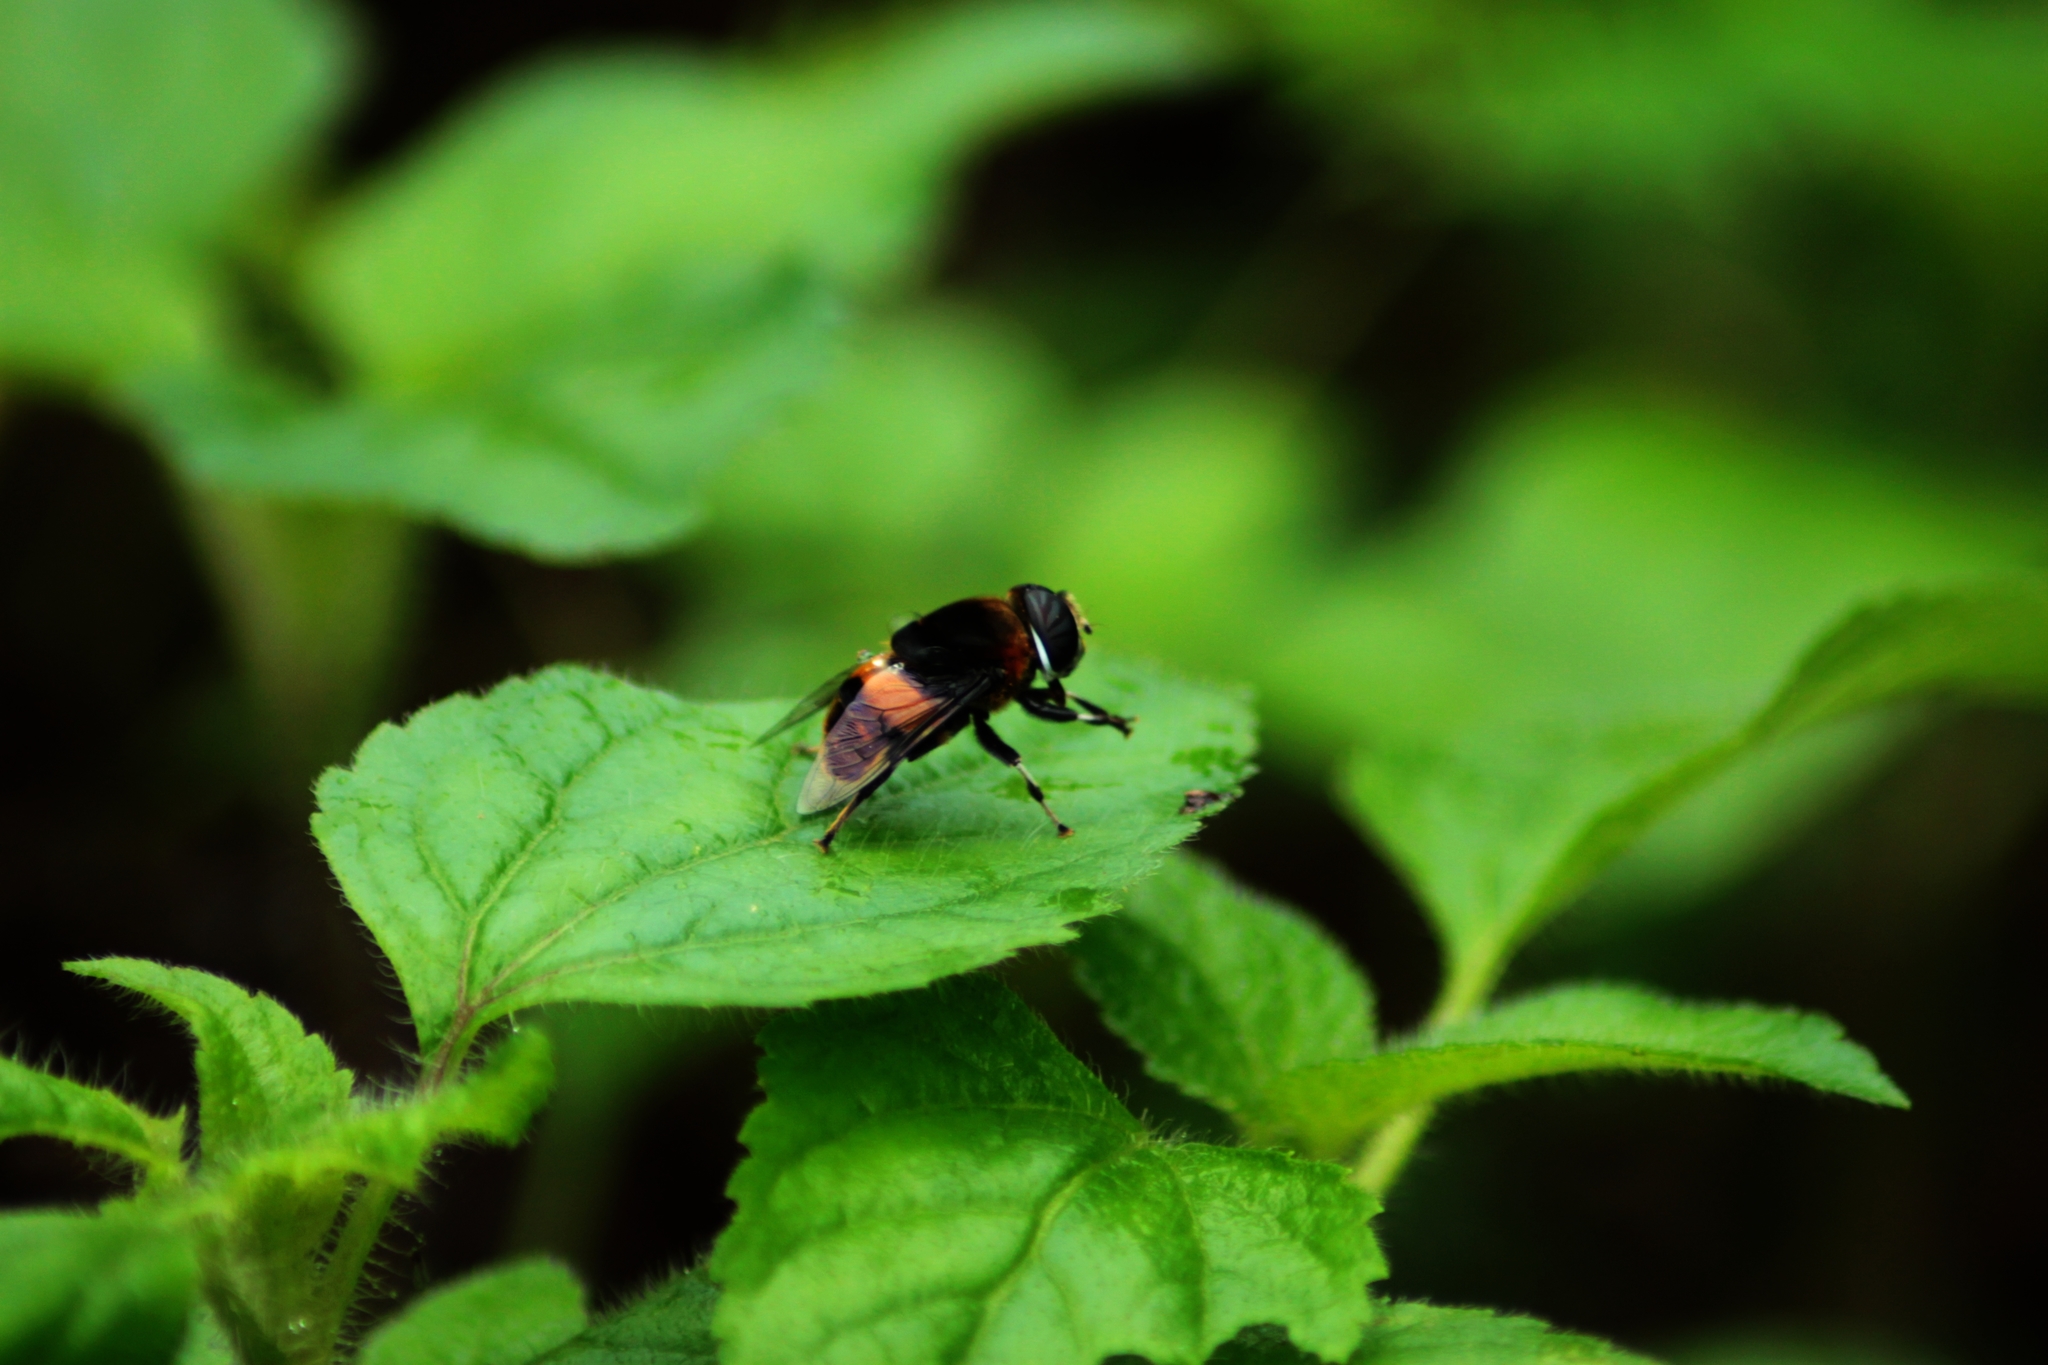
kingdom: Animalia
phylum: Arthropoda
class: Insecta
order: Diptera
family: Syrphidae
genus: Phytomia
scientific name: Phytomia zonata
